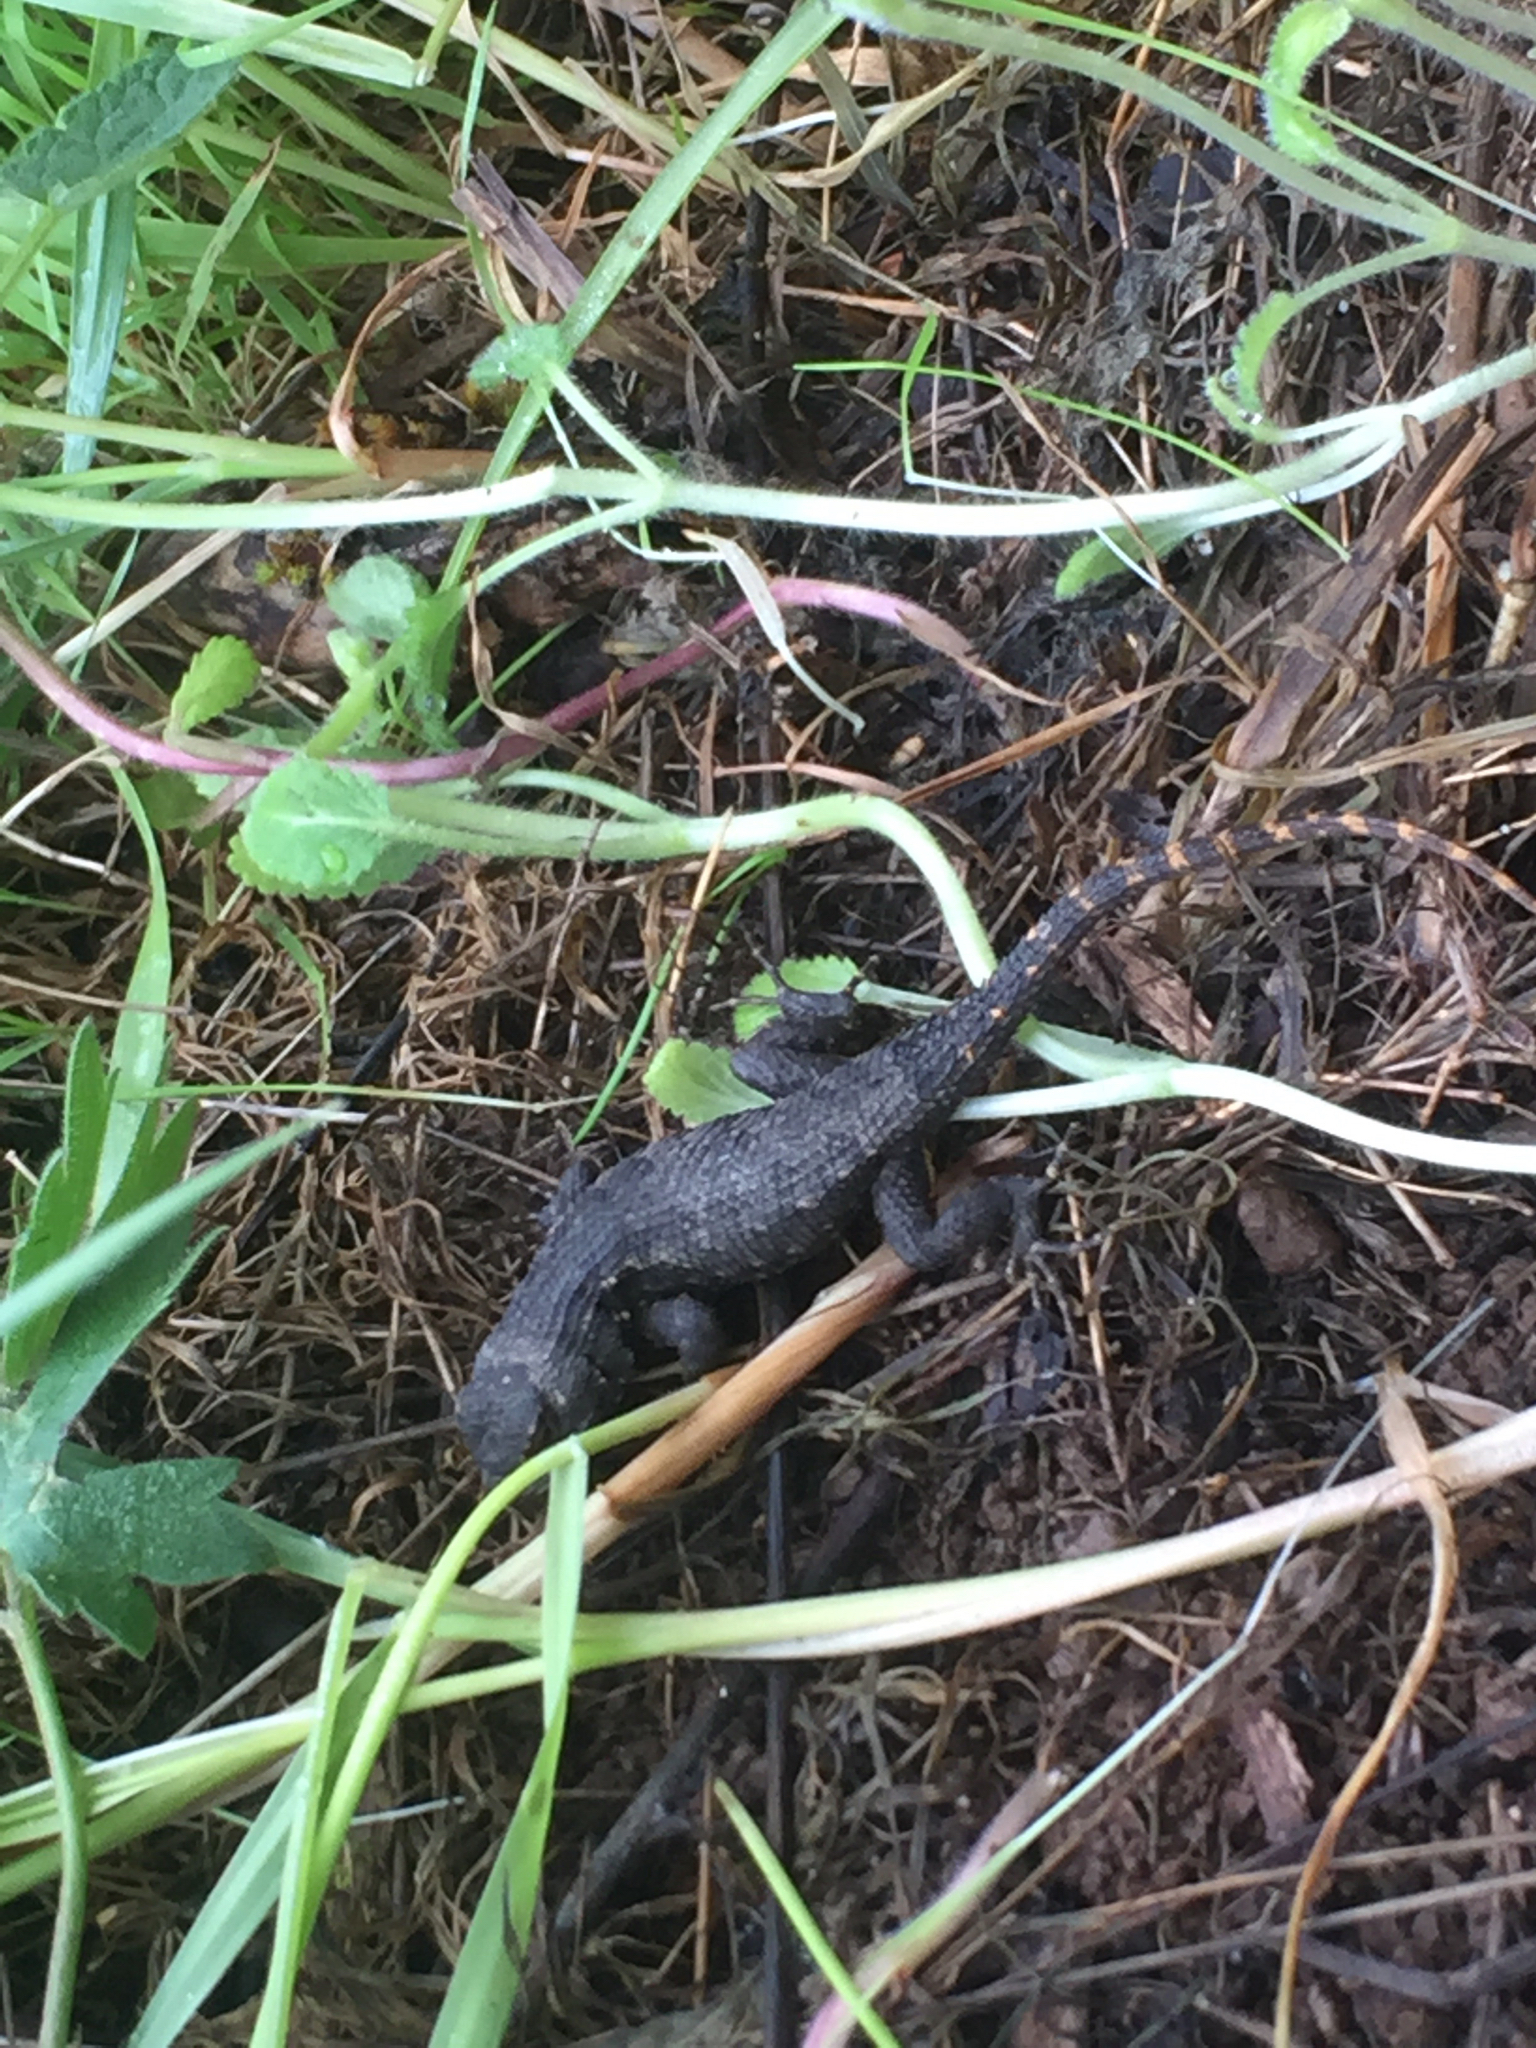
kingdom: Animalia
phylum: Chordata
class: Squamata
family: Phrynosomatidae
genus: Sceloporus
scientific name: Sceloporus occidentalis
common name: Western fence lizard
